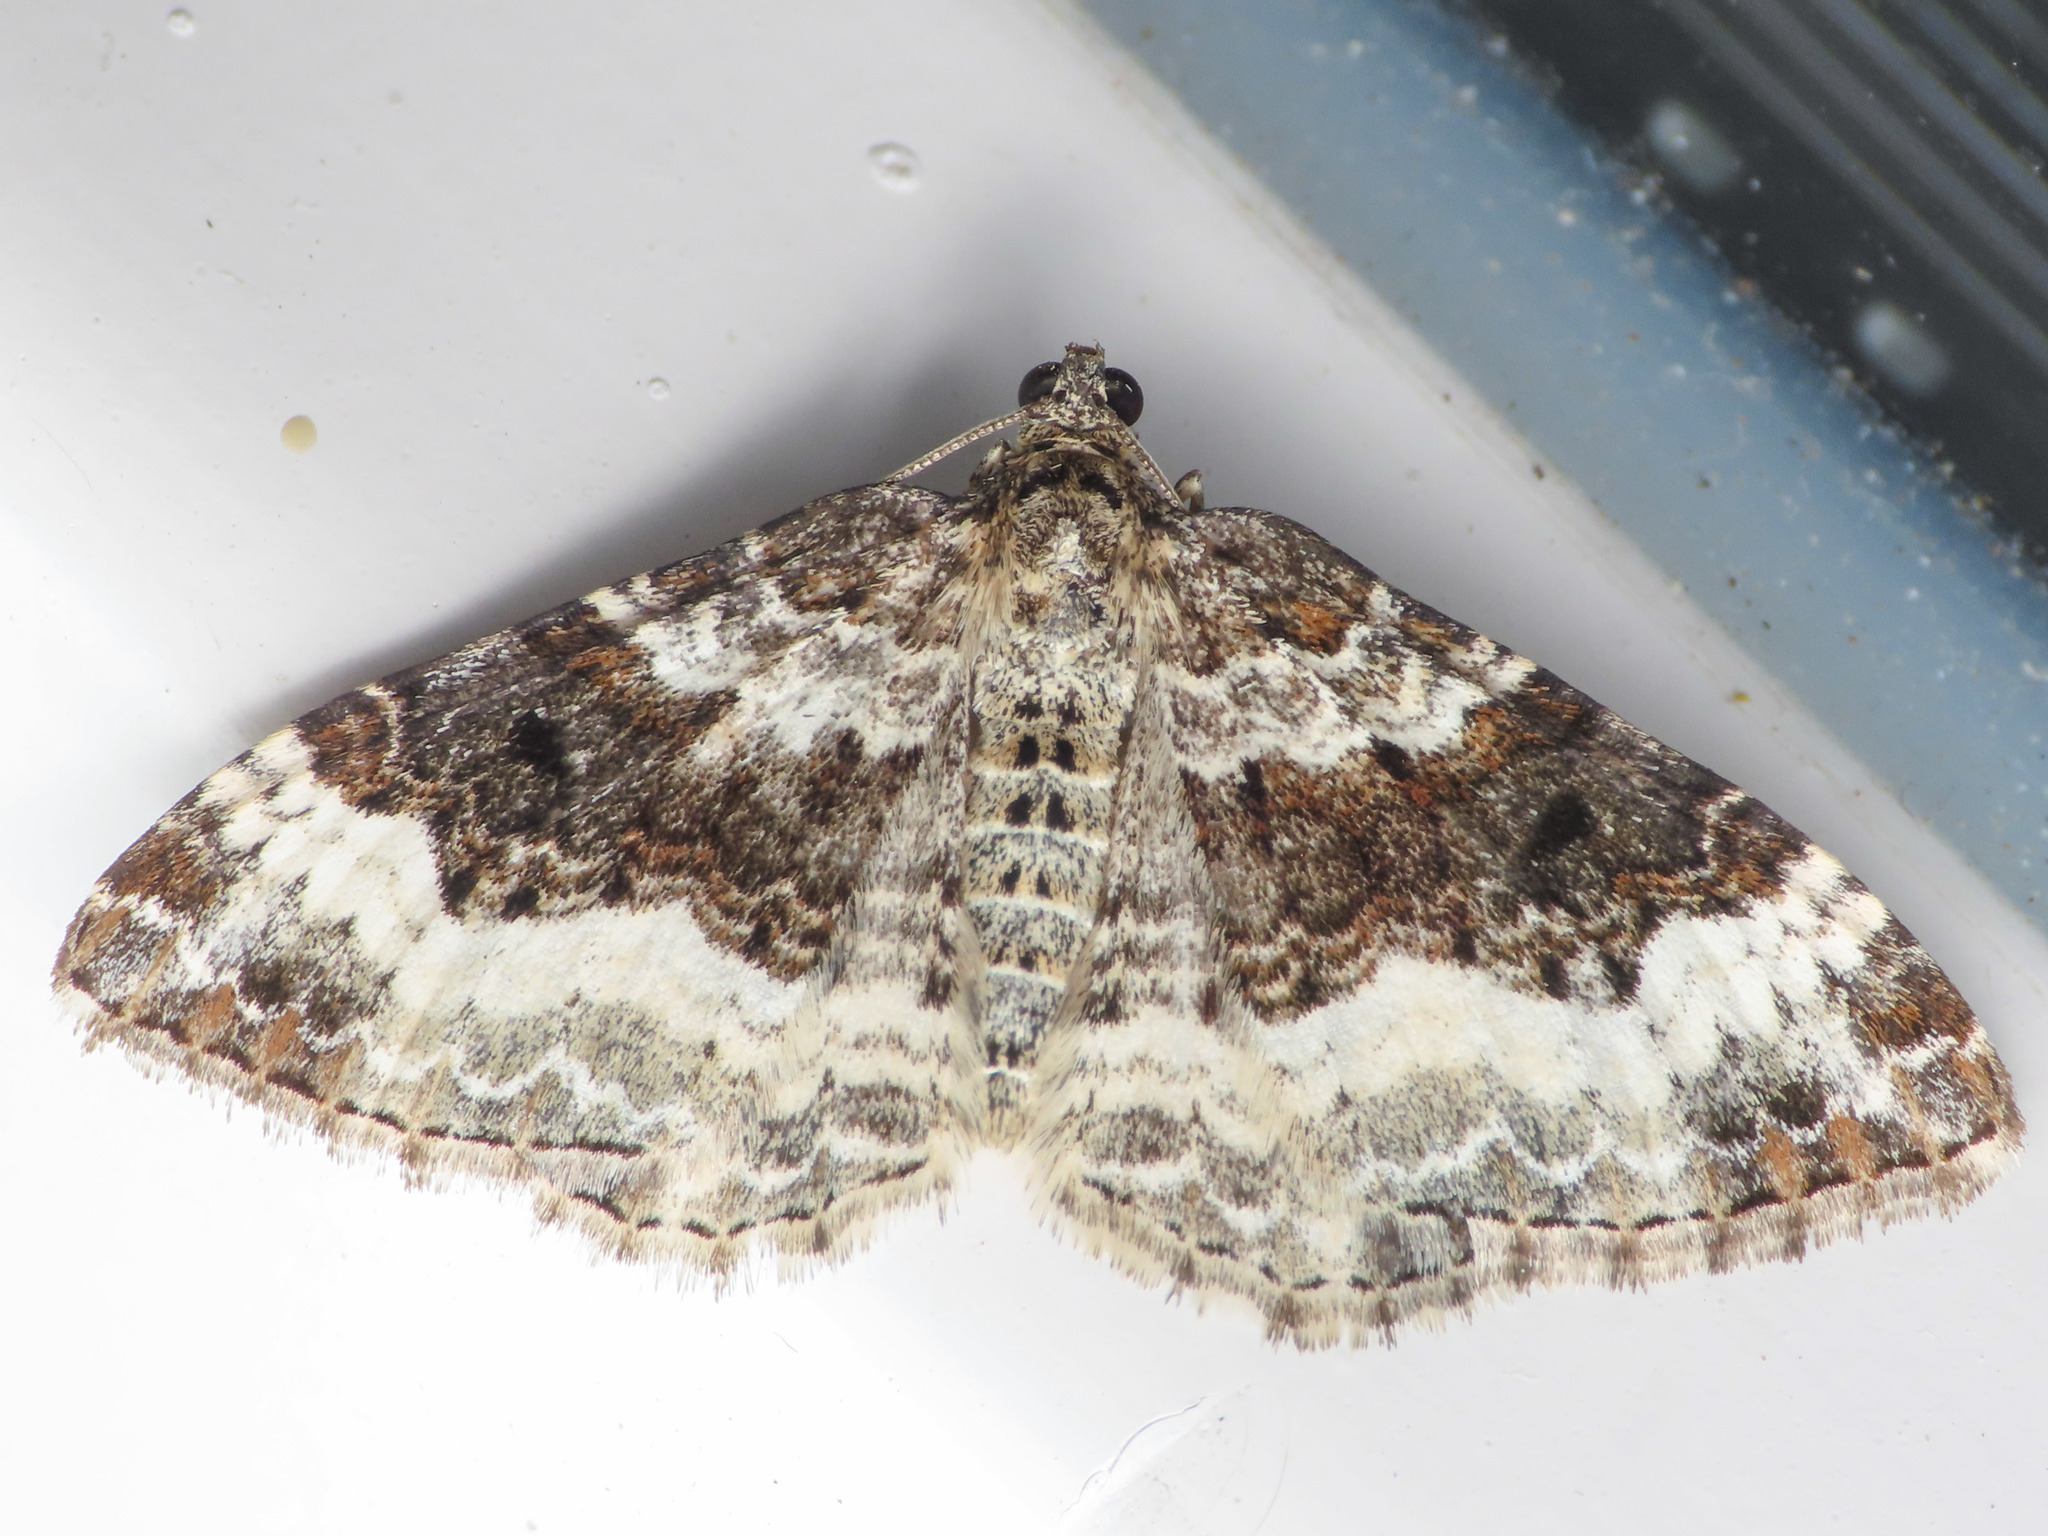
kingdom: Animalia
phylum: Arthropoda
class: Insecta
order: Lepidoptera
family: Geometridae
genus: Epirrhoe
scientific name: Epirrhoe alternata
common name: Common carpet
